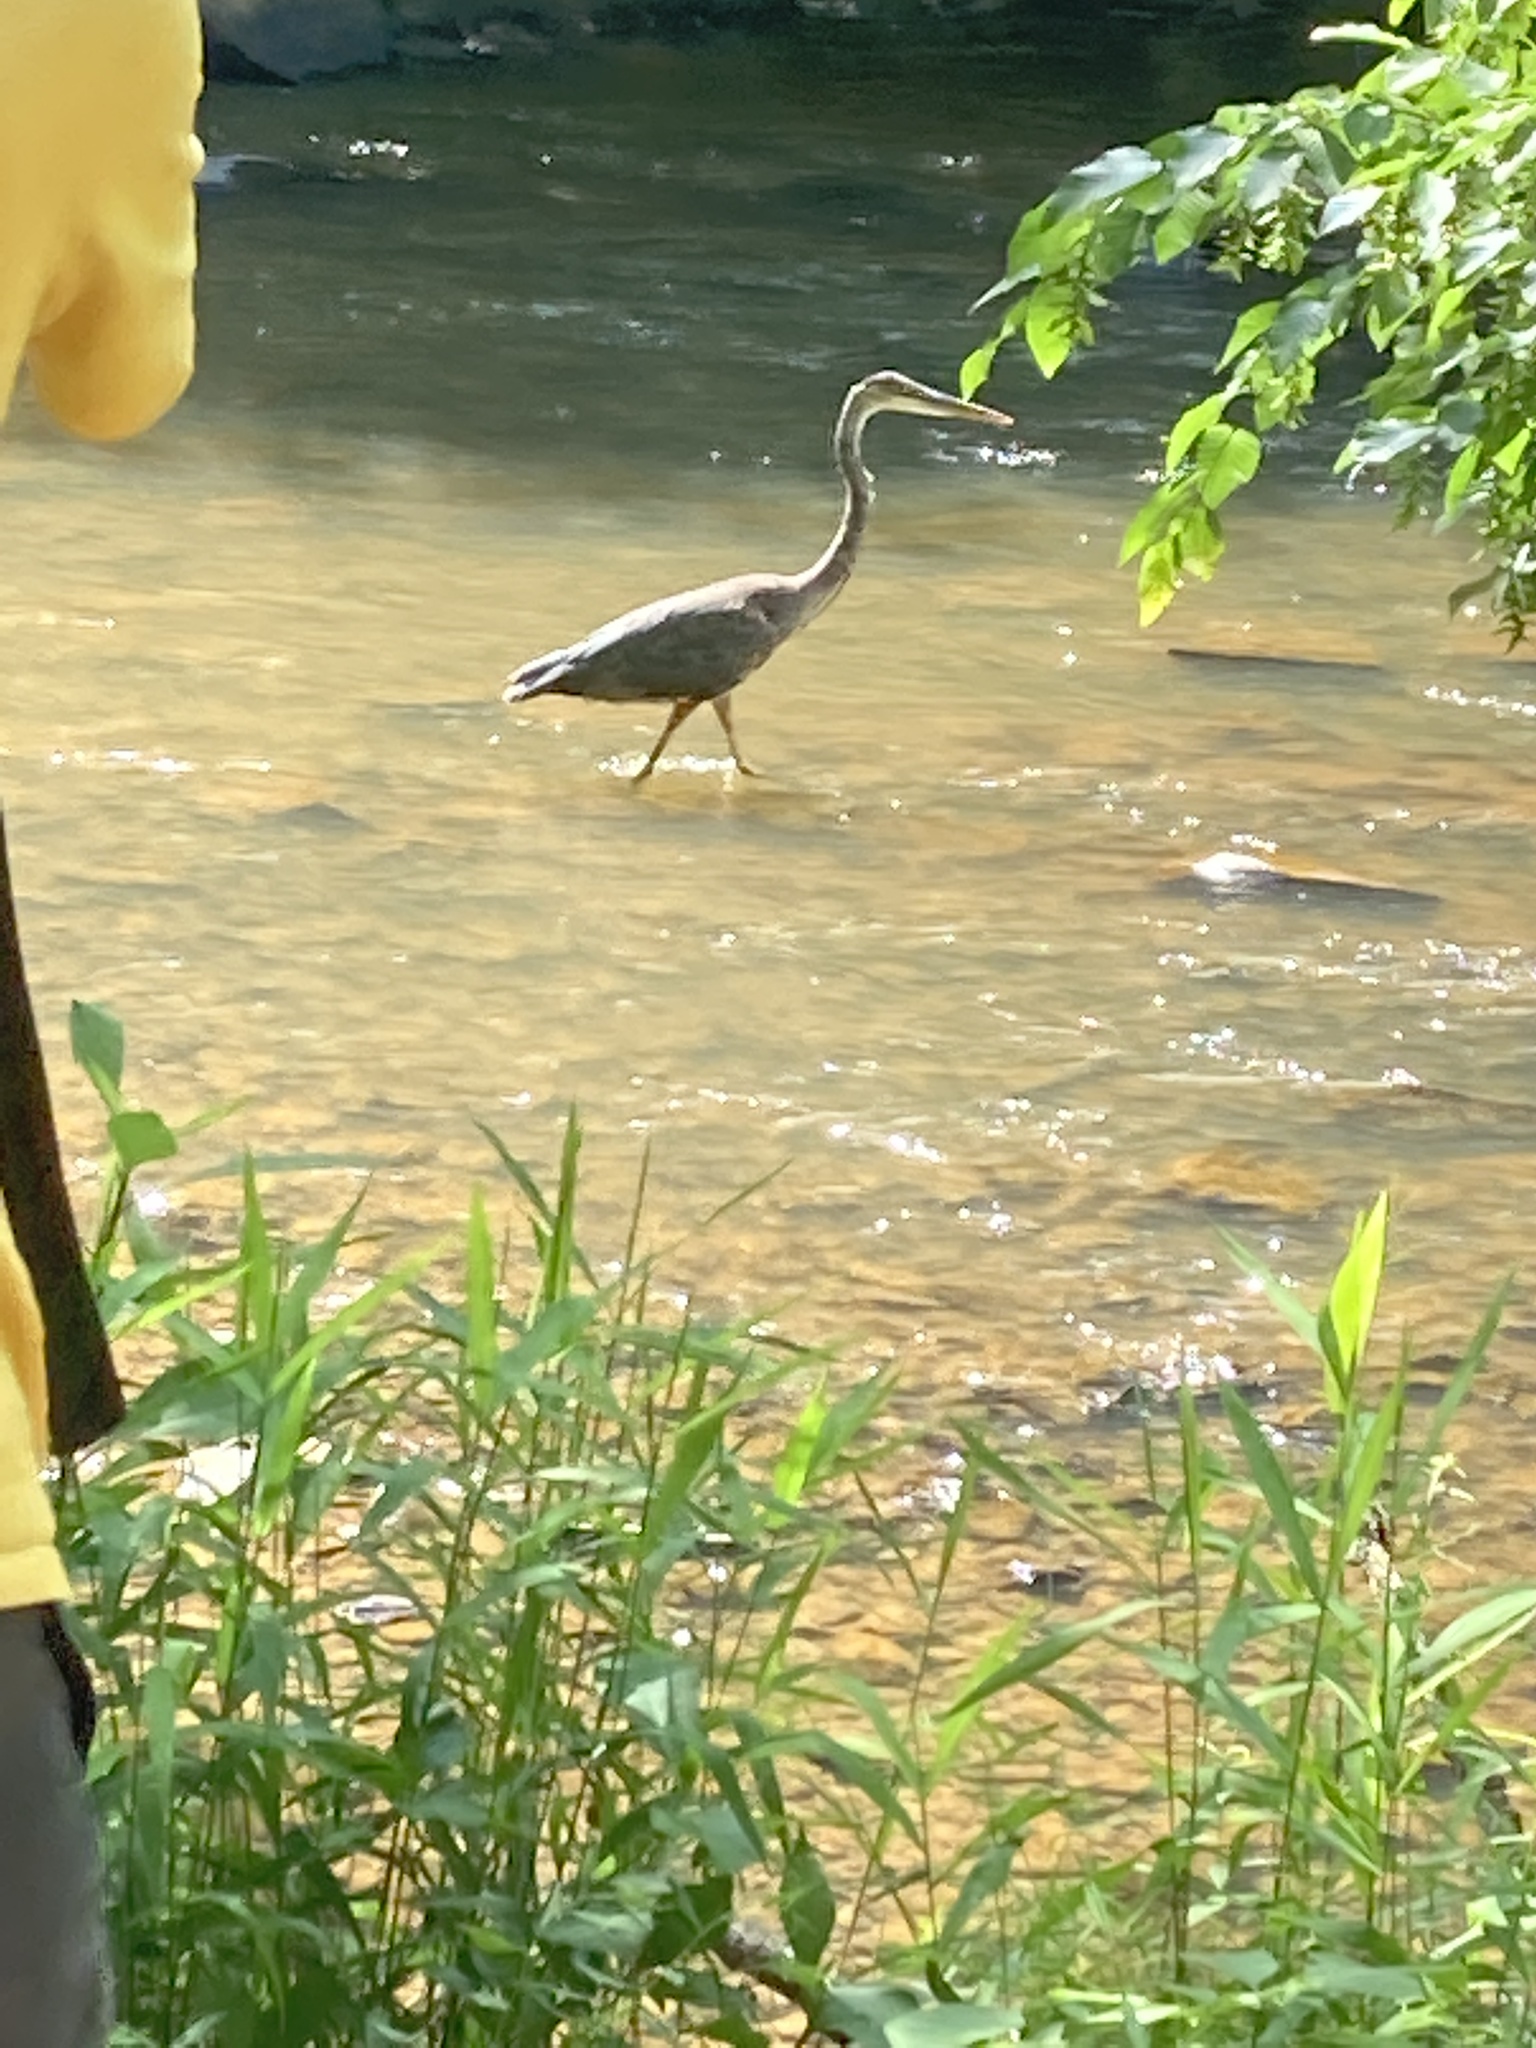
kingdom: Animalia
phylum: Chordata
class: Aves
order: Pelecaniformes
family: Ardeidae
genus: Ardea
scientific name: Ardea herodias
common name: Great blue heron
